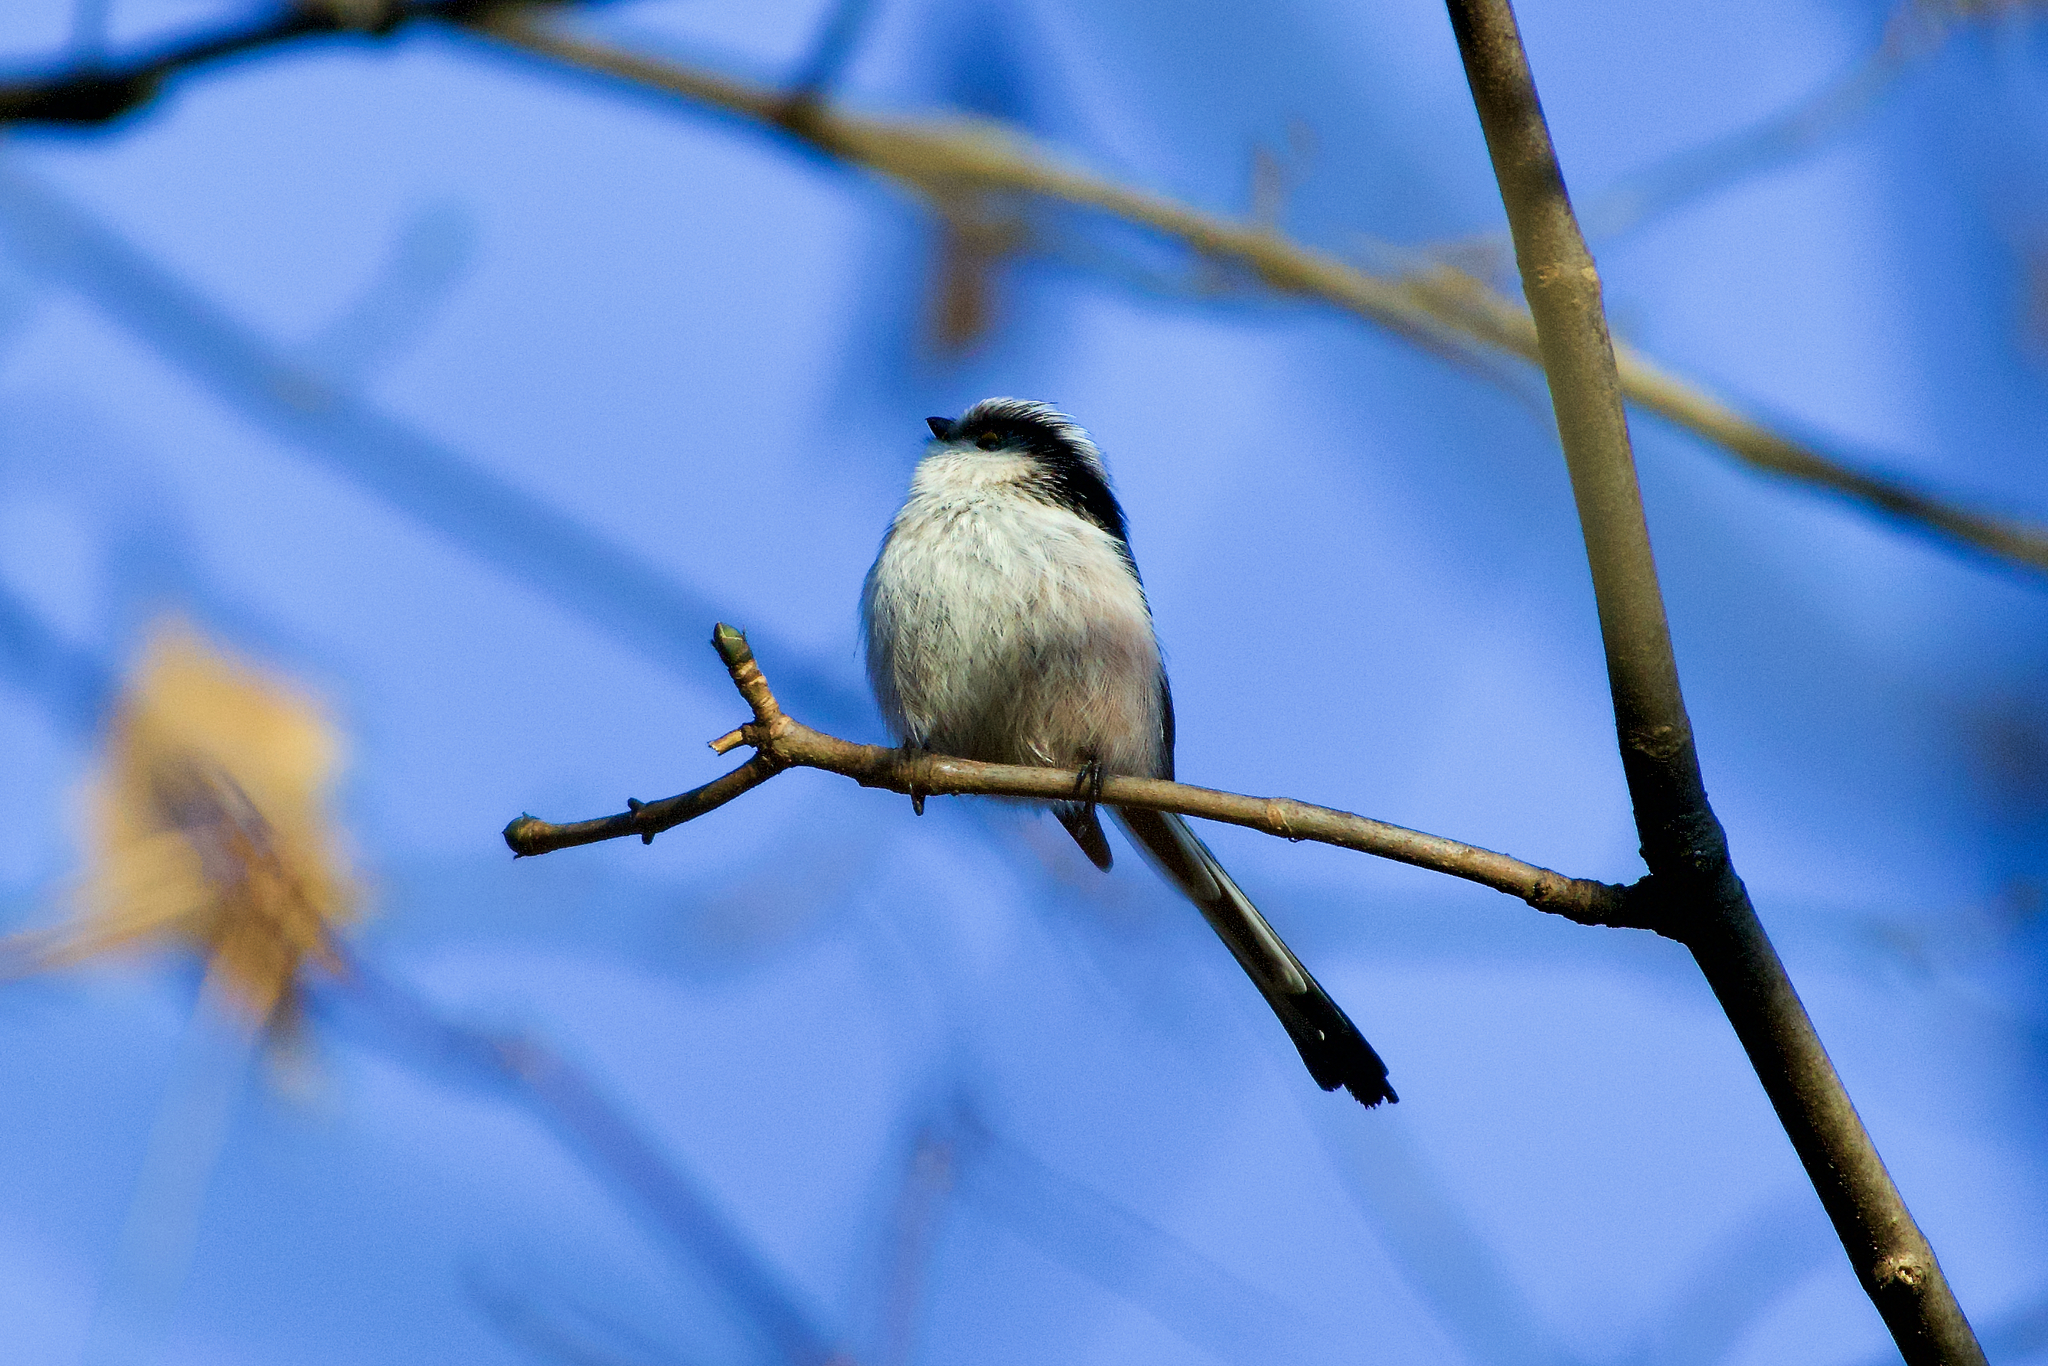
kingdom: Animalia
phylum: Chordata
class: Aves
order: Passeriformes
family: Aegithalidae
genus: Aegithalos
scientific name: Aegithalos caudatus
